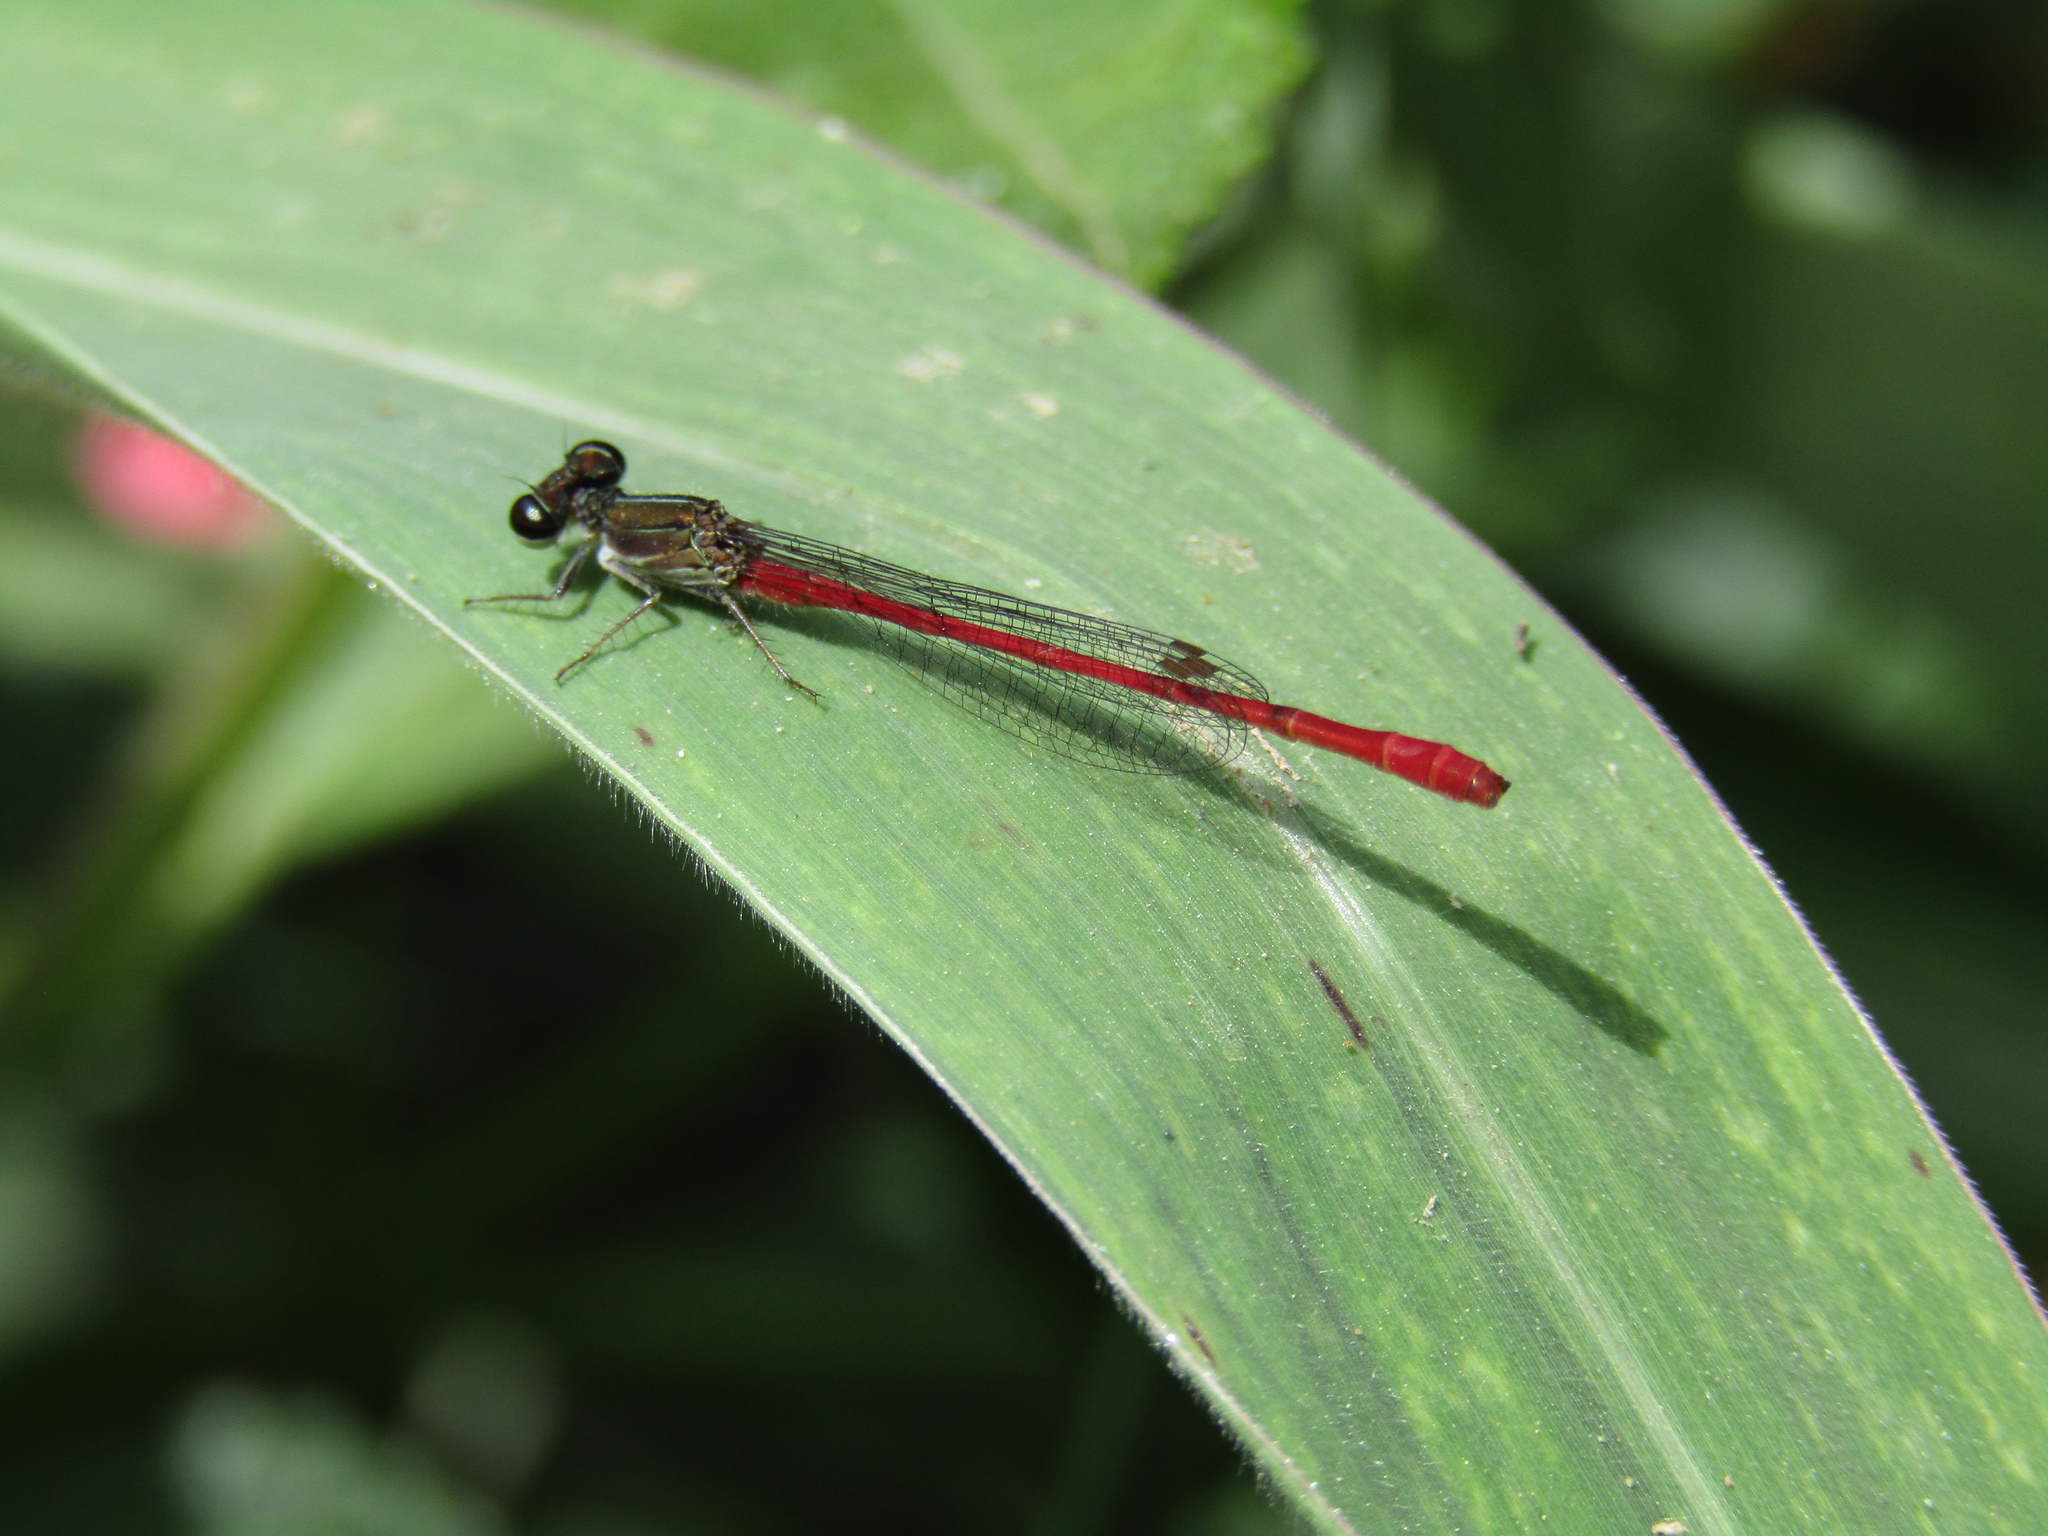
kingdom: Animalia
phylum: Arthropoda
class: Insecta
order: Odonata
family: Coenagrionidae
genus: Telebasis
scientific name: Telebasis willinki
